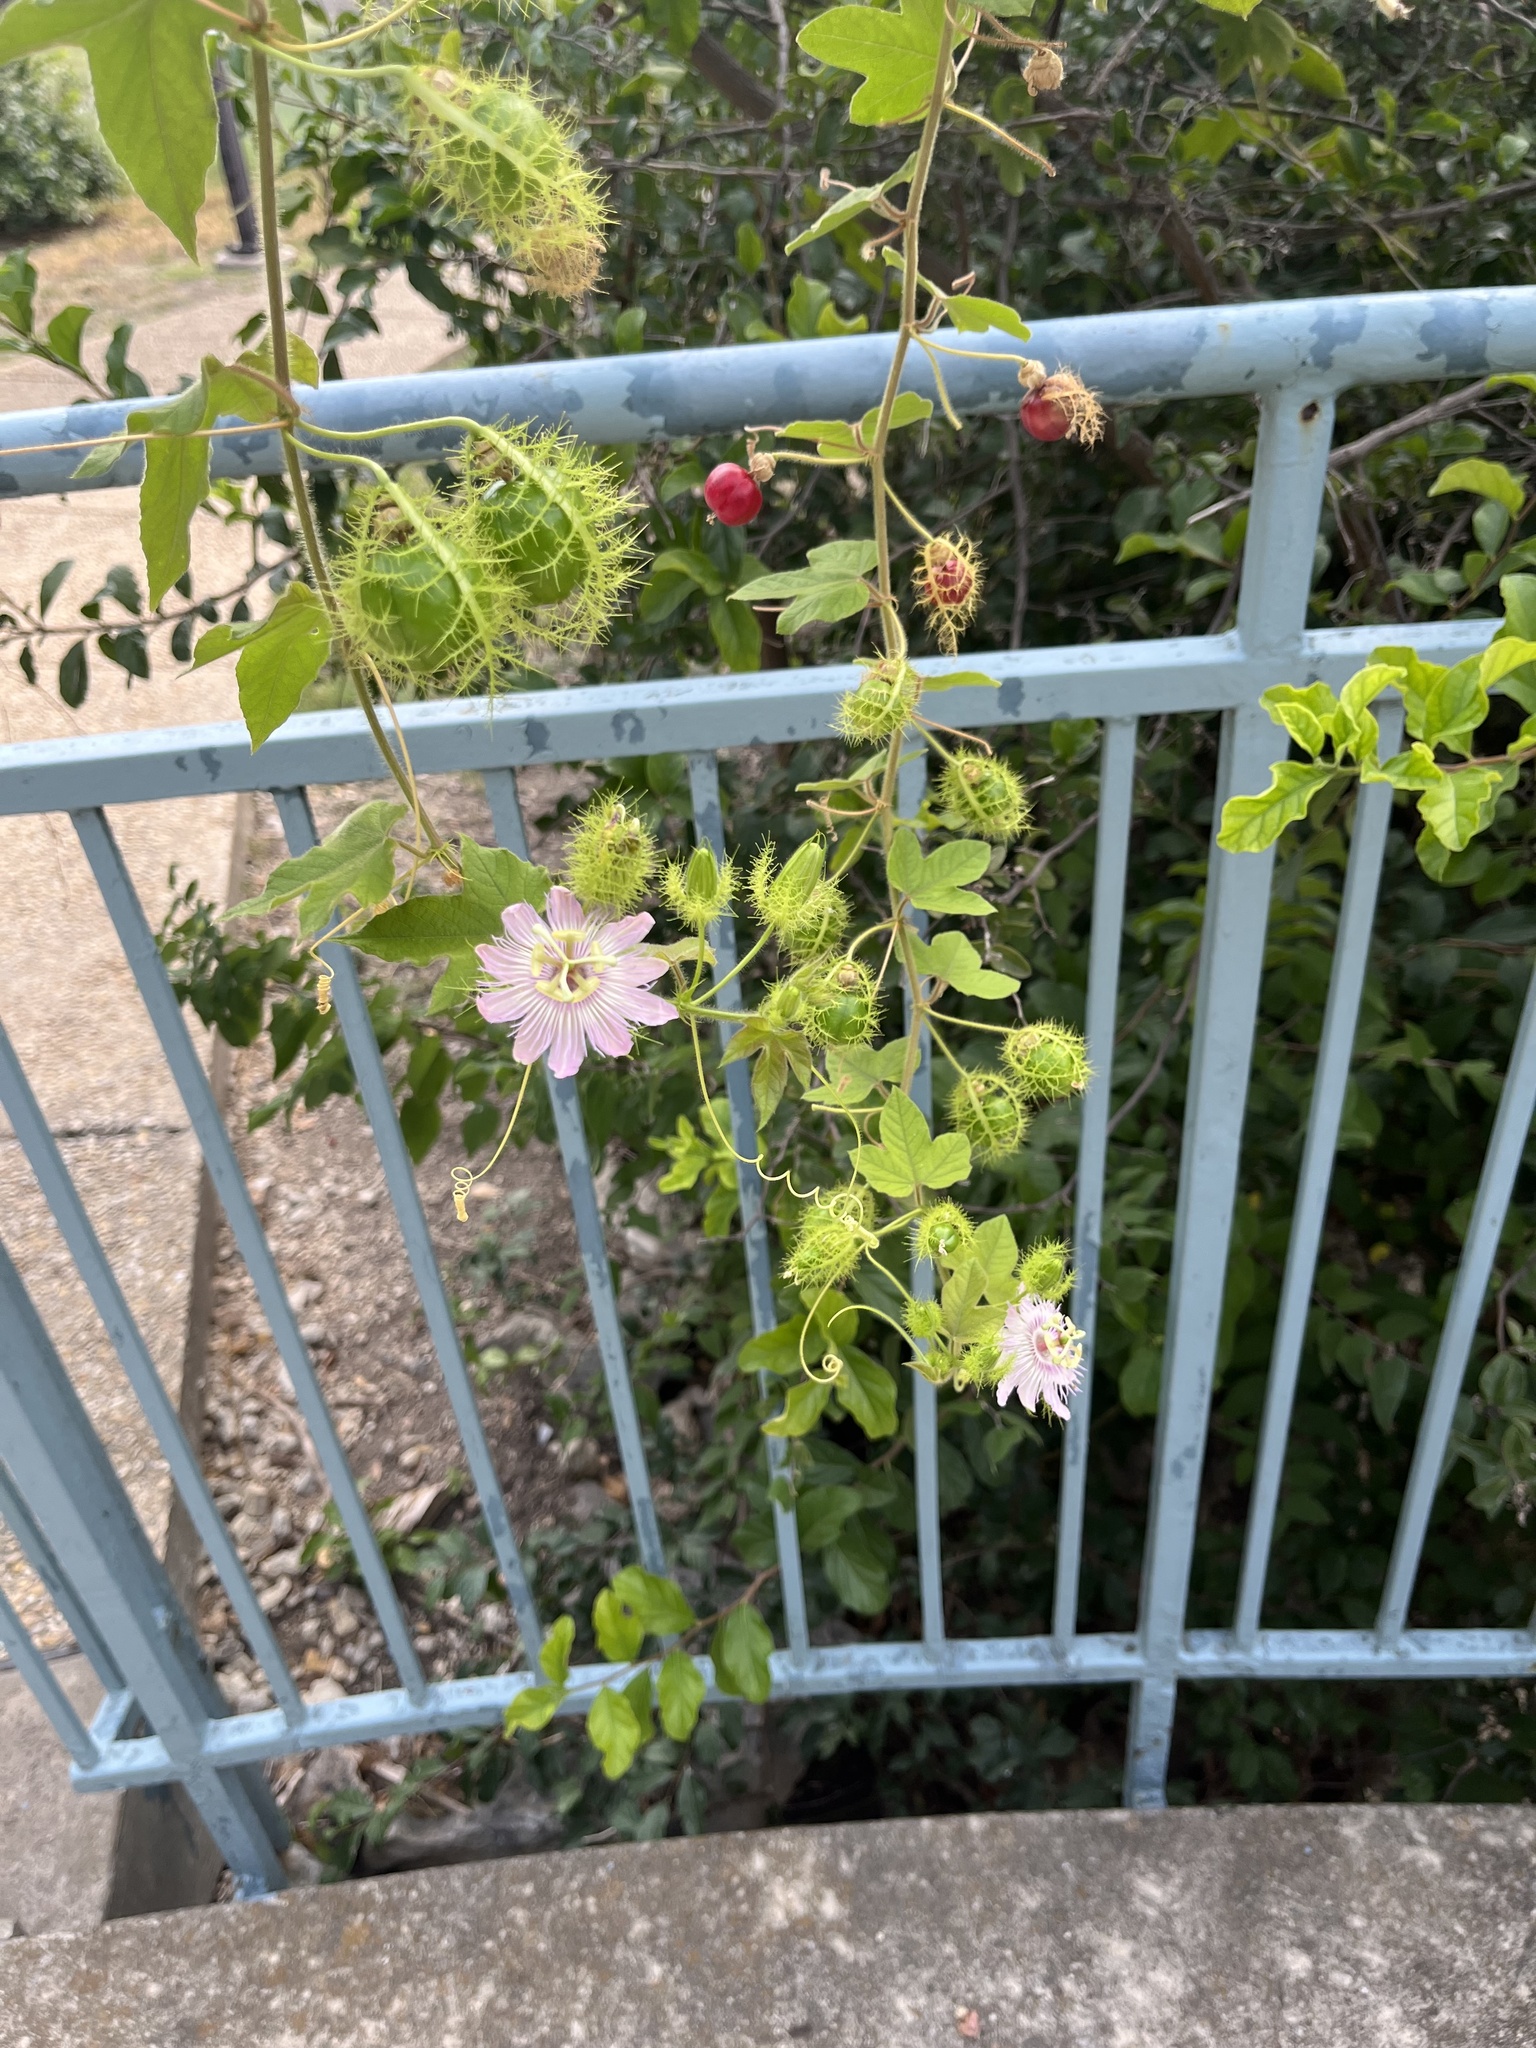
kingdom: Plantae
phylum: Tracheophyta
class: Magnoliopsida
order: Malpighiales
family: Passifloraceae
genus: Passiflora
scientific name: Passiflora
